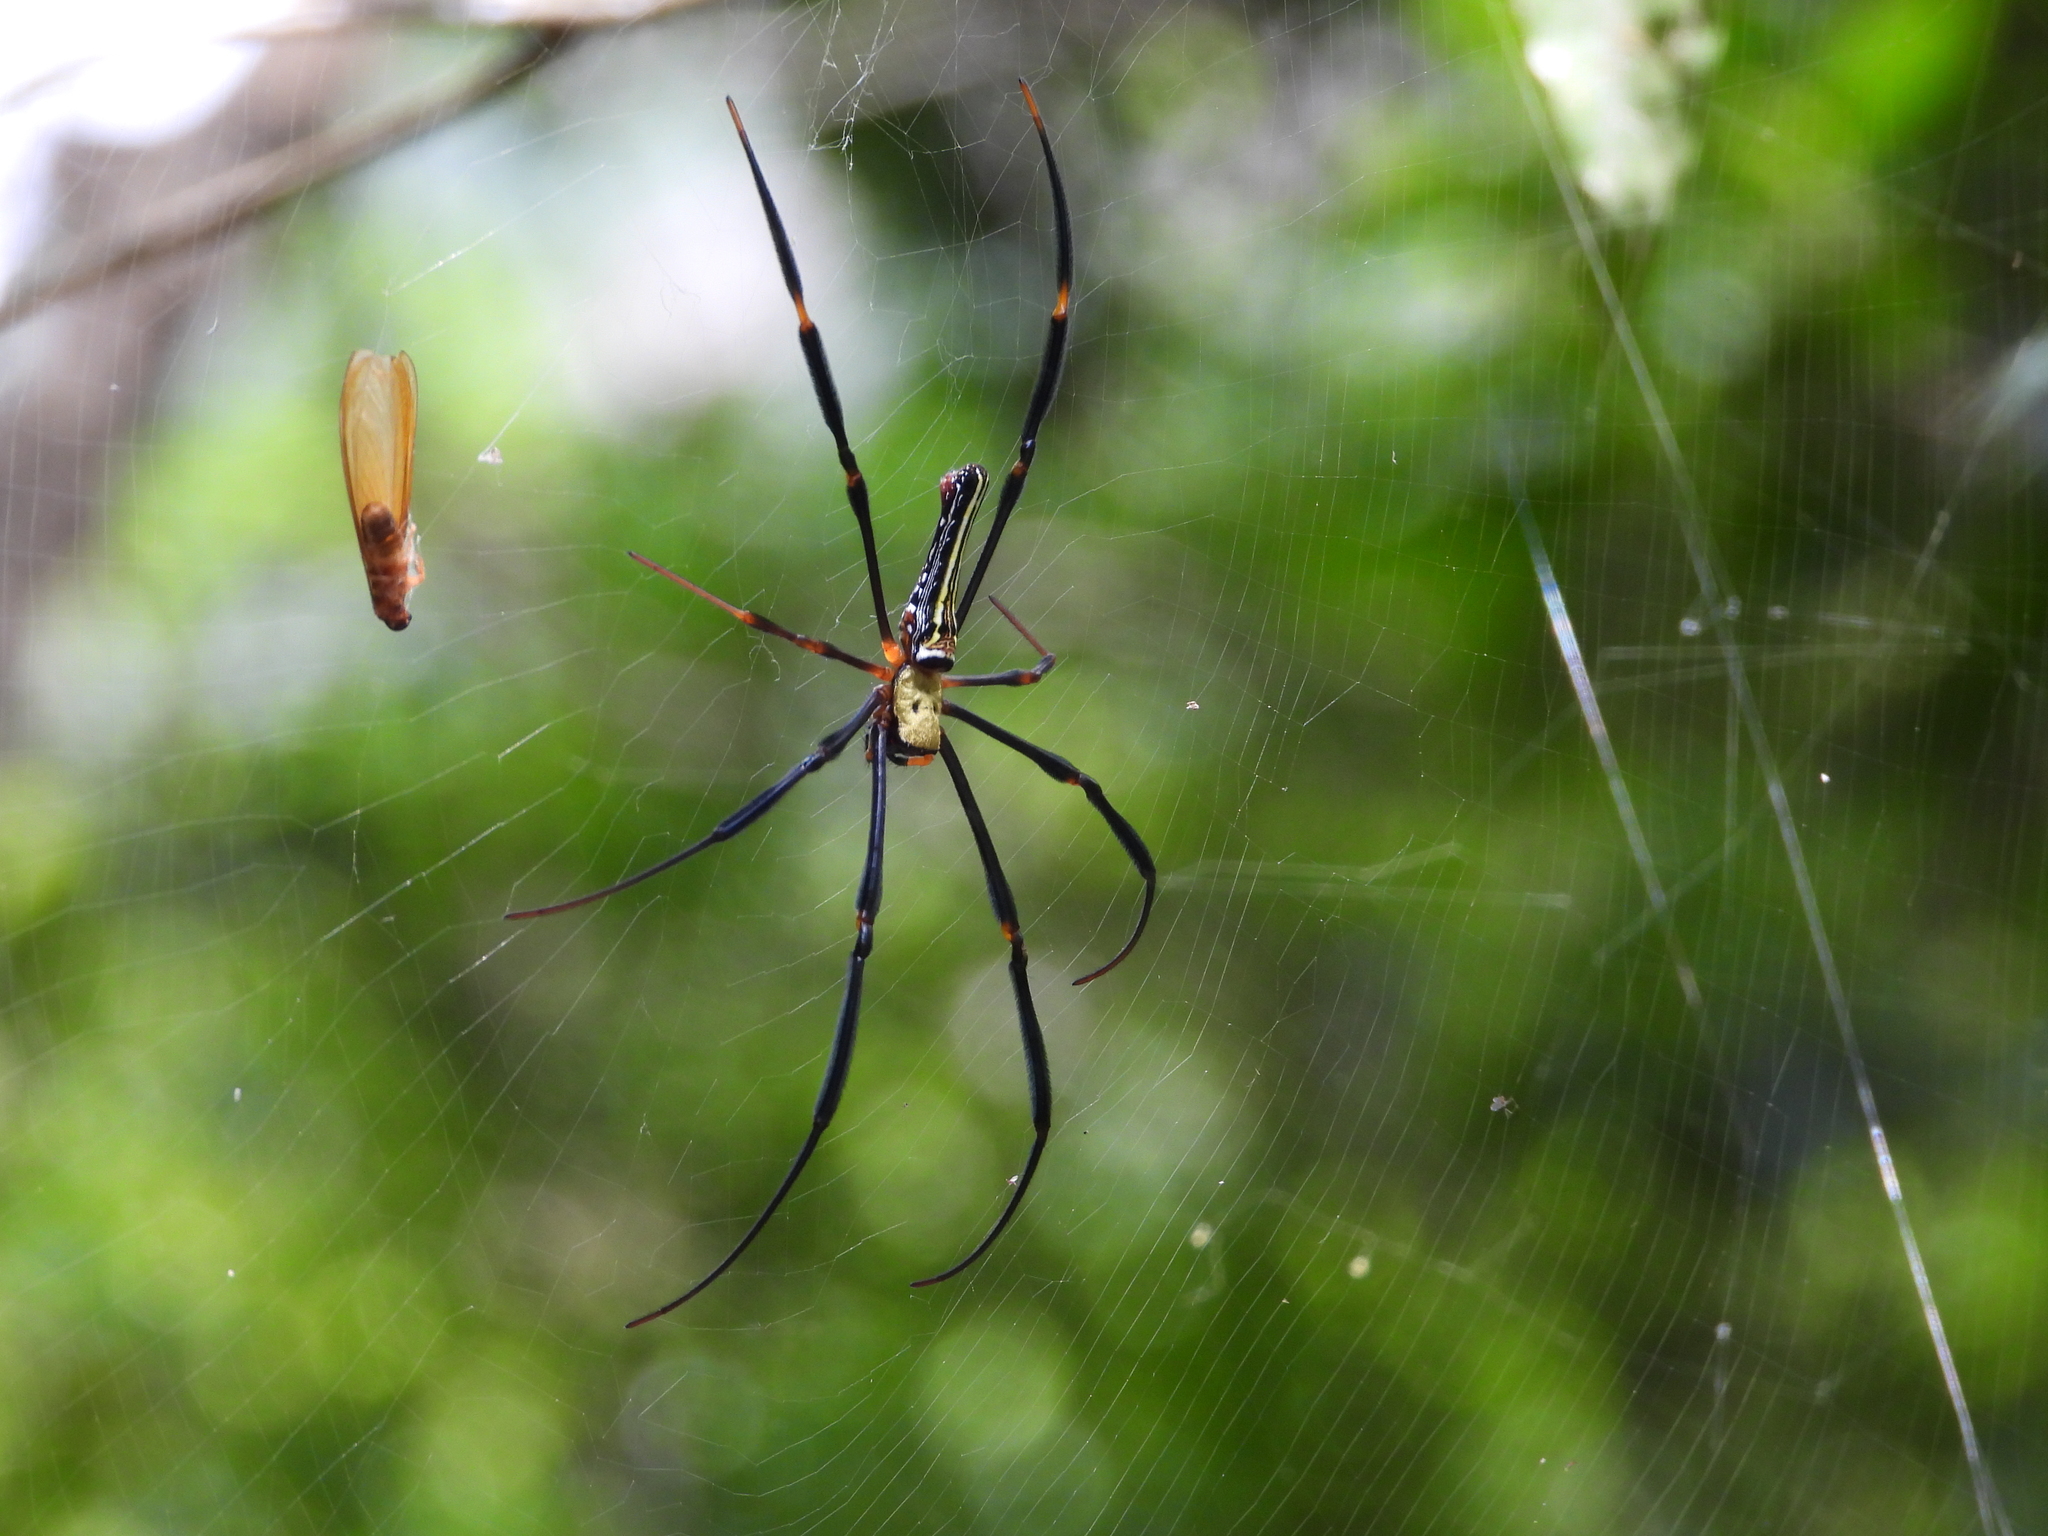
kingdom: Animalia
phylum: Arthropoda
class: Arachnida
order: Araneae
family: Araneidae
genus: Nephila
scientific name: Nephila pilipes
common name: Giant golden orb weaver
